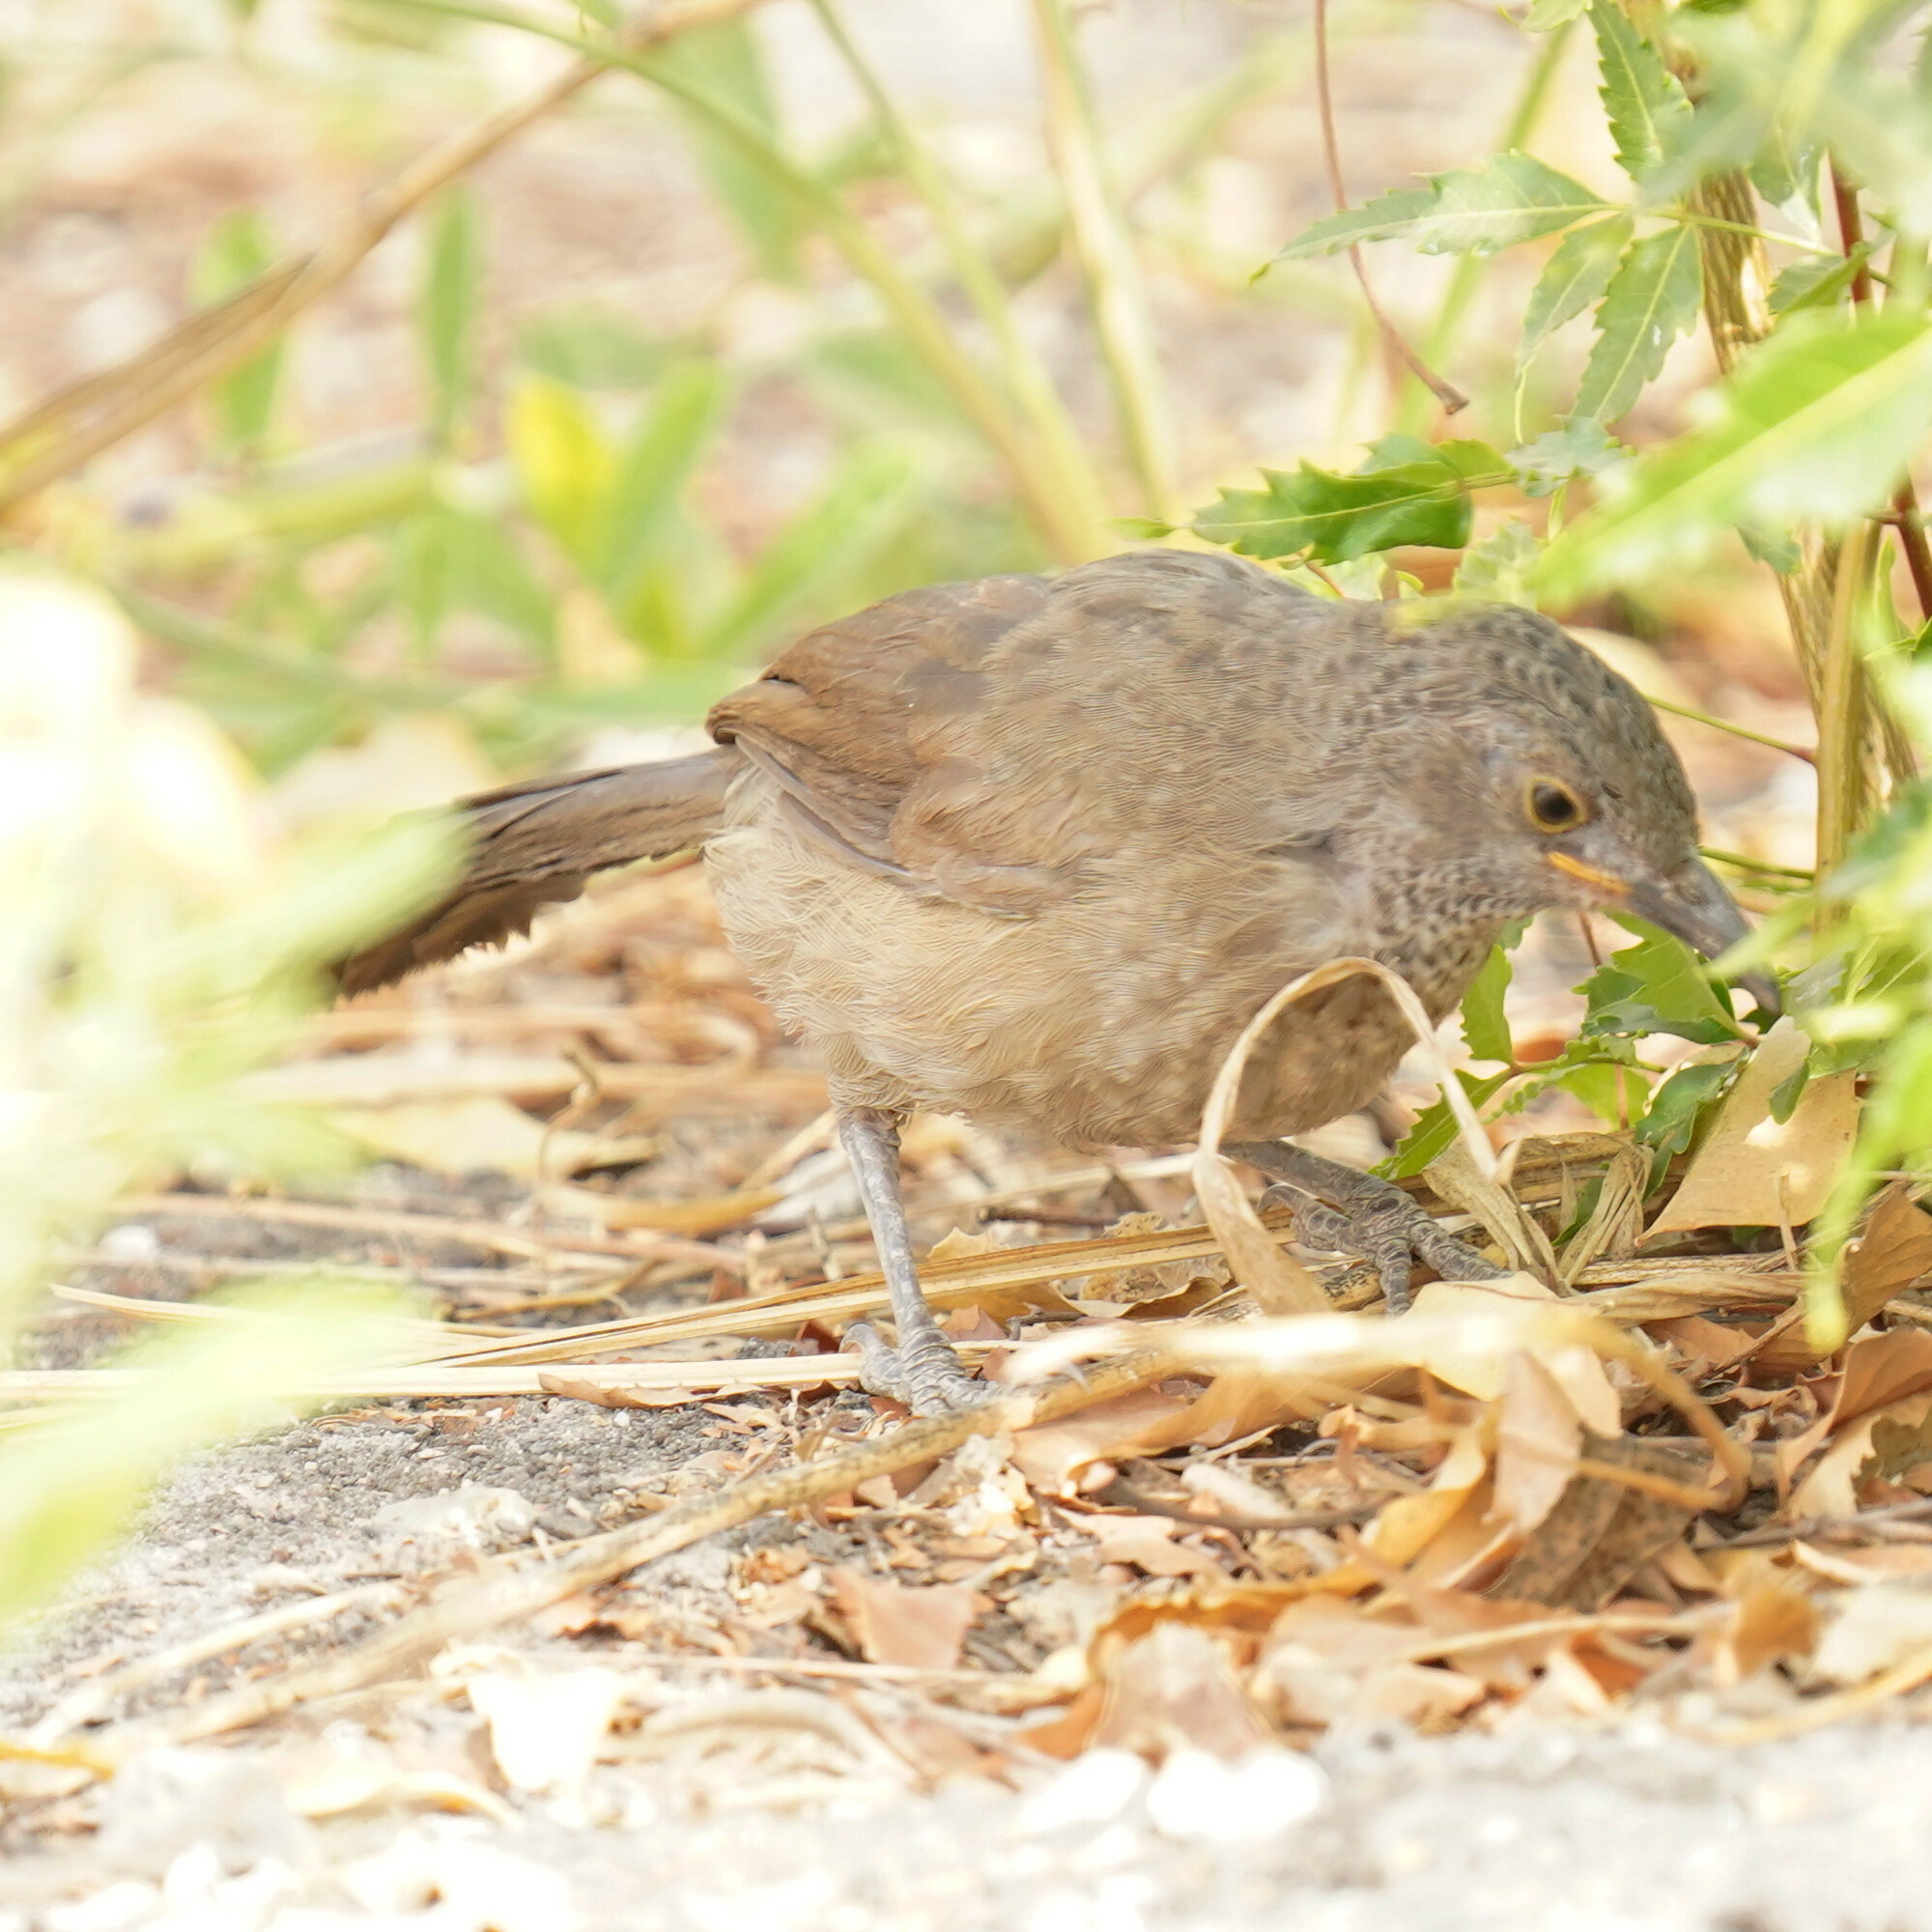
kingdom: Animalia
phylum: Chordata
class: Aves
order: Passeriformes
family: Leiothrichidae
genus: Turdoides
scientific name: Turdoides plebejus
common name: Brown babbler
